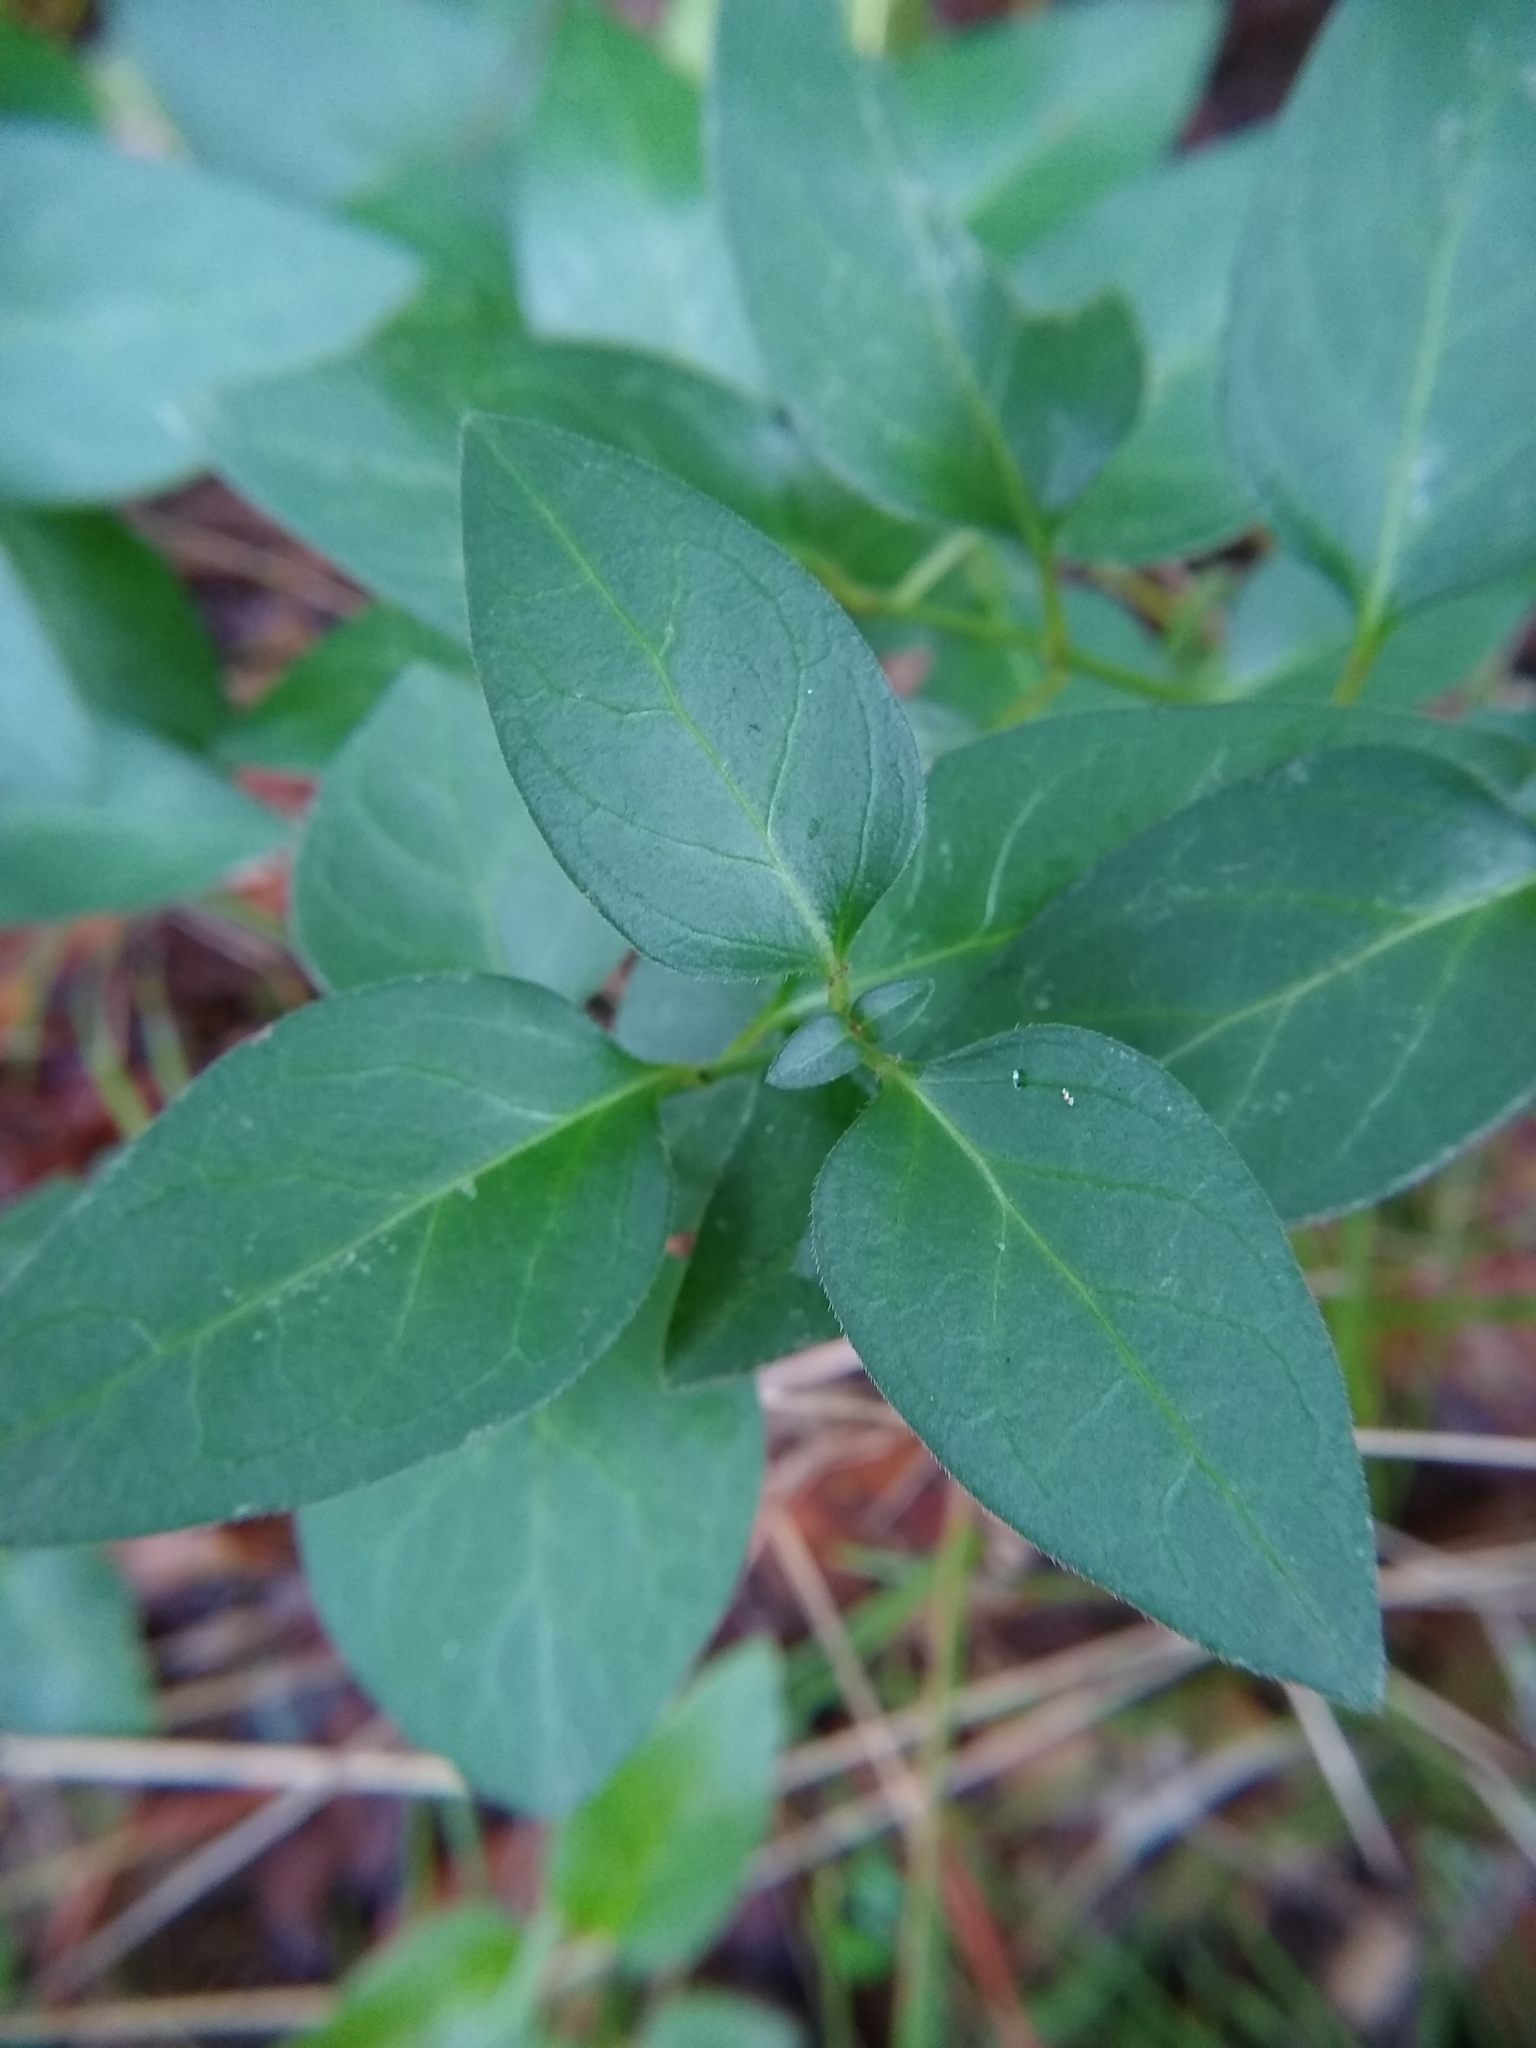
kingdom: Plantae
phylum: Tracheophyta
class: Magnoliopsida
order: Gentianales
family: Apocynaceae
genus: Vinca
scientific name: Vinca major
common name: Greater periwinkle
